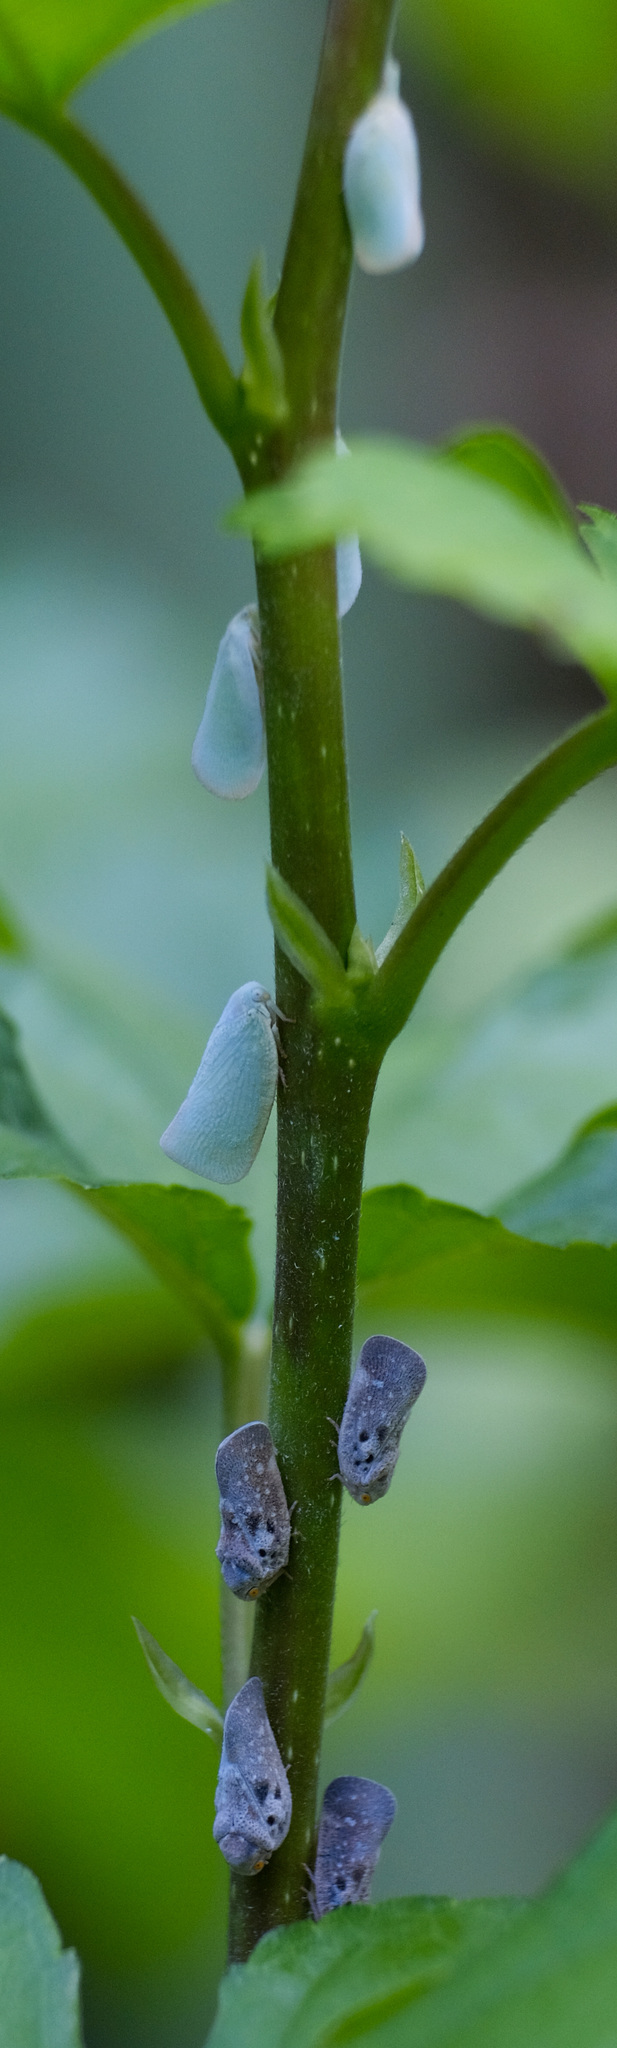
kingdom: Animalia
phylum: Arthropoda
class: Insecta
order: Hemiptera
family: Flatidae
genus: Flatormenis
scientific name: Flatormenis proxima
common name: Northern flatid planthopper
